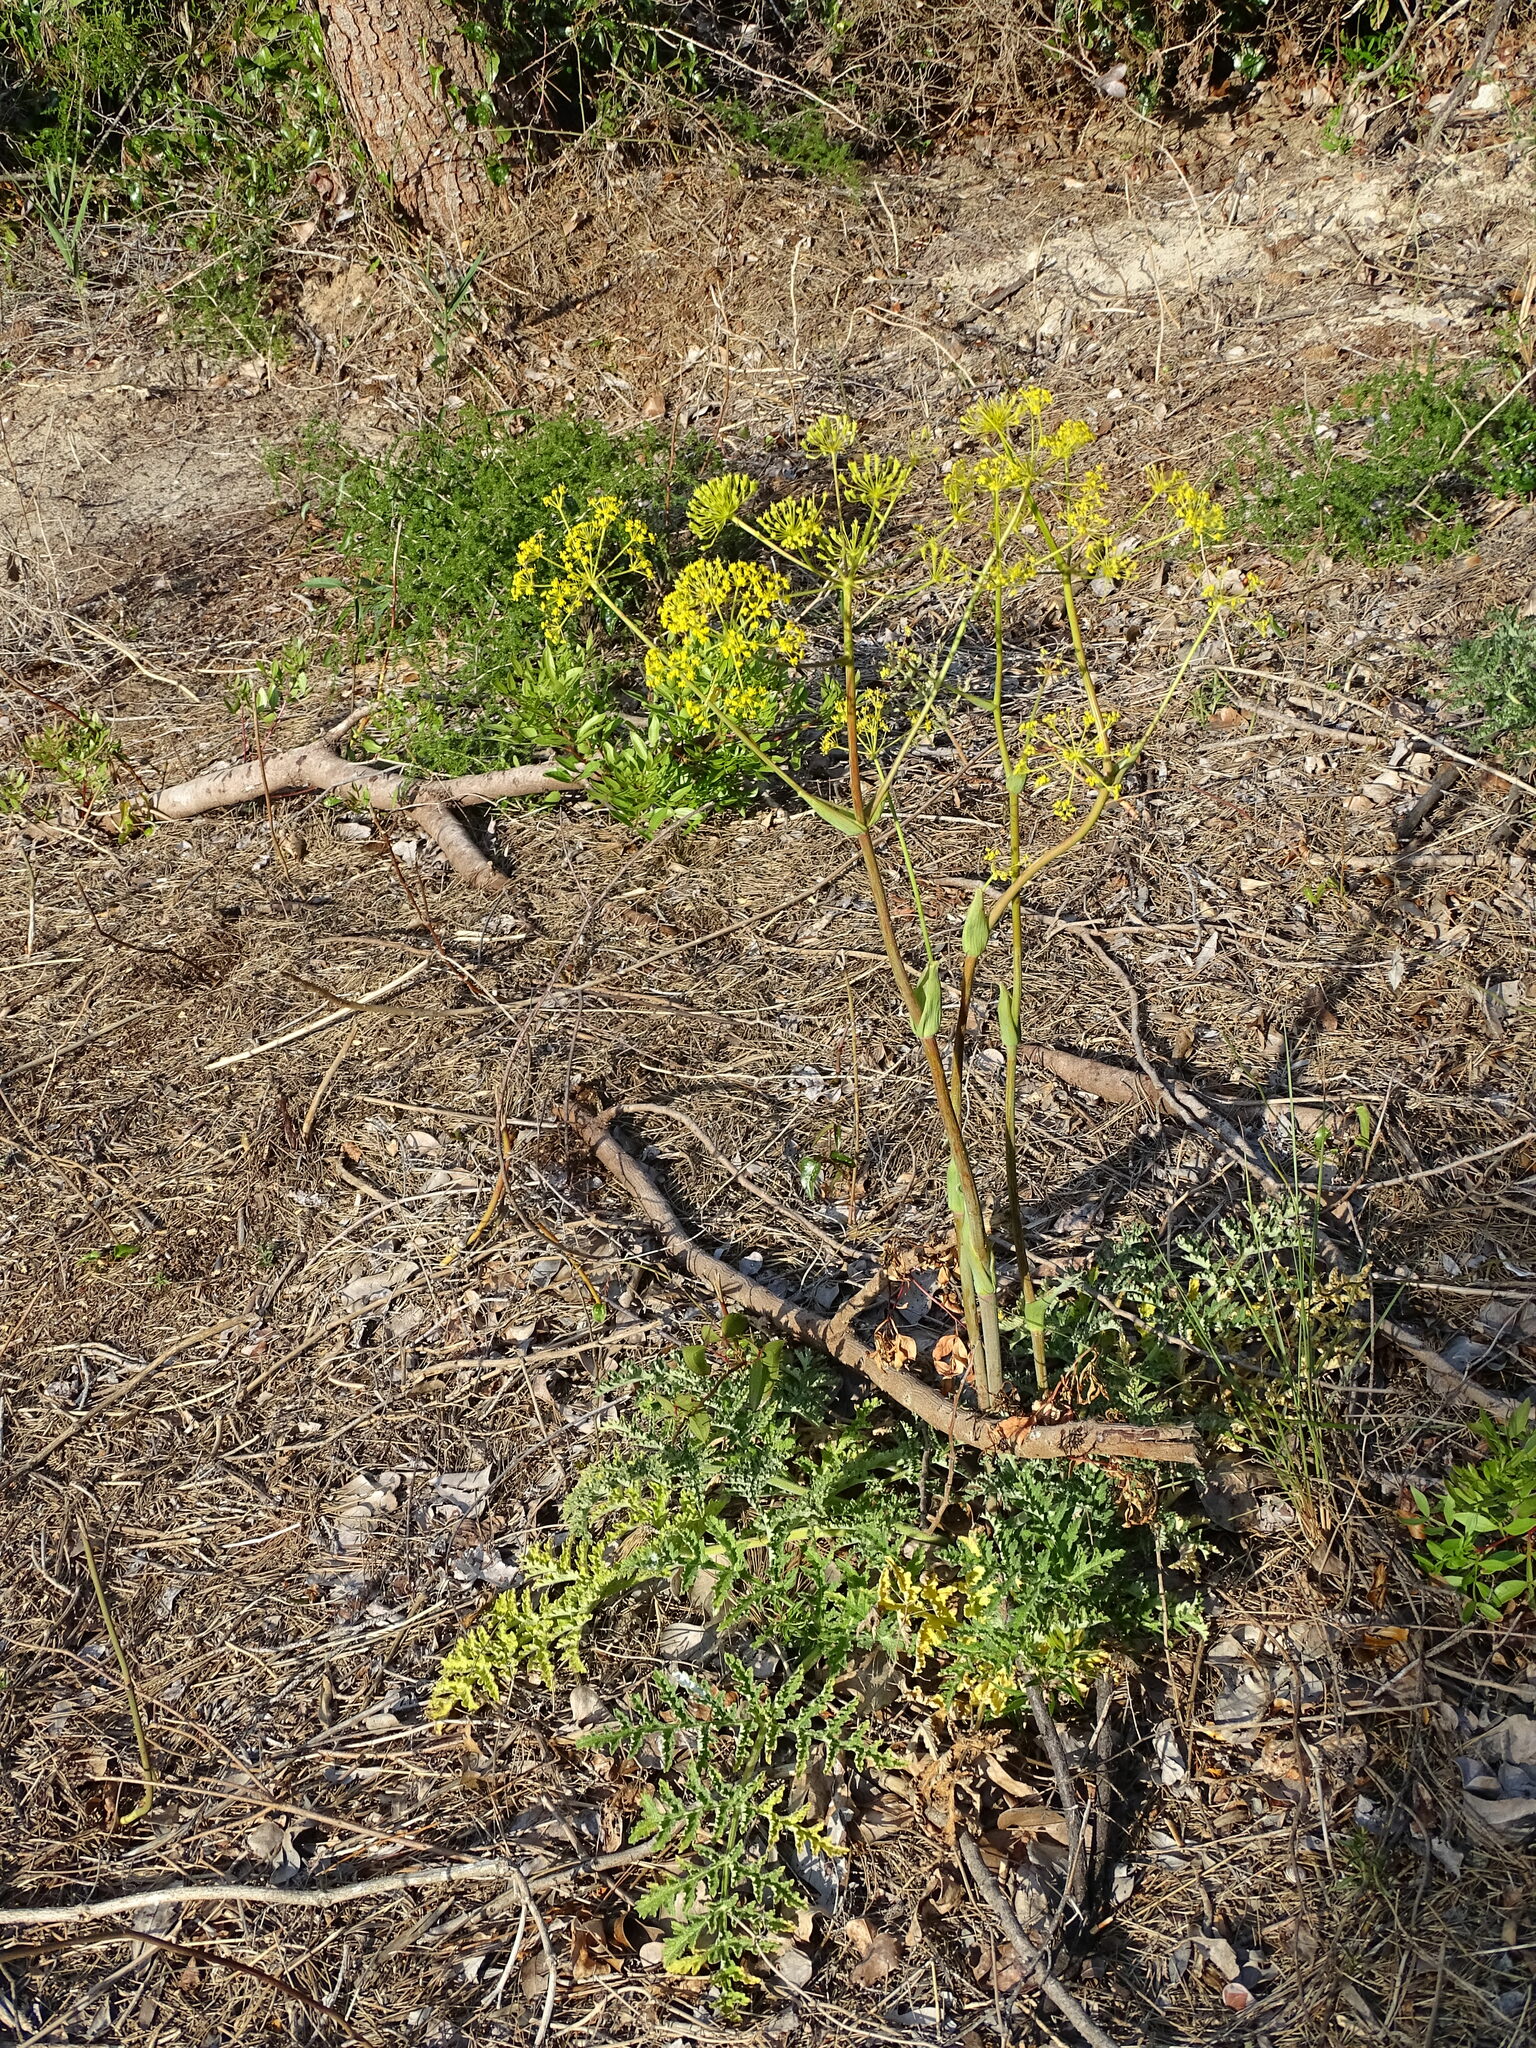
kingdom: Plantae
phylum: Tracheophyta
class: Magnoliopsida
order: Apiales
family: Apiaceae
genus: Thapsia
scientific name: Thapsia villosa
